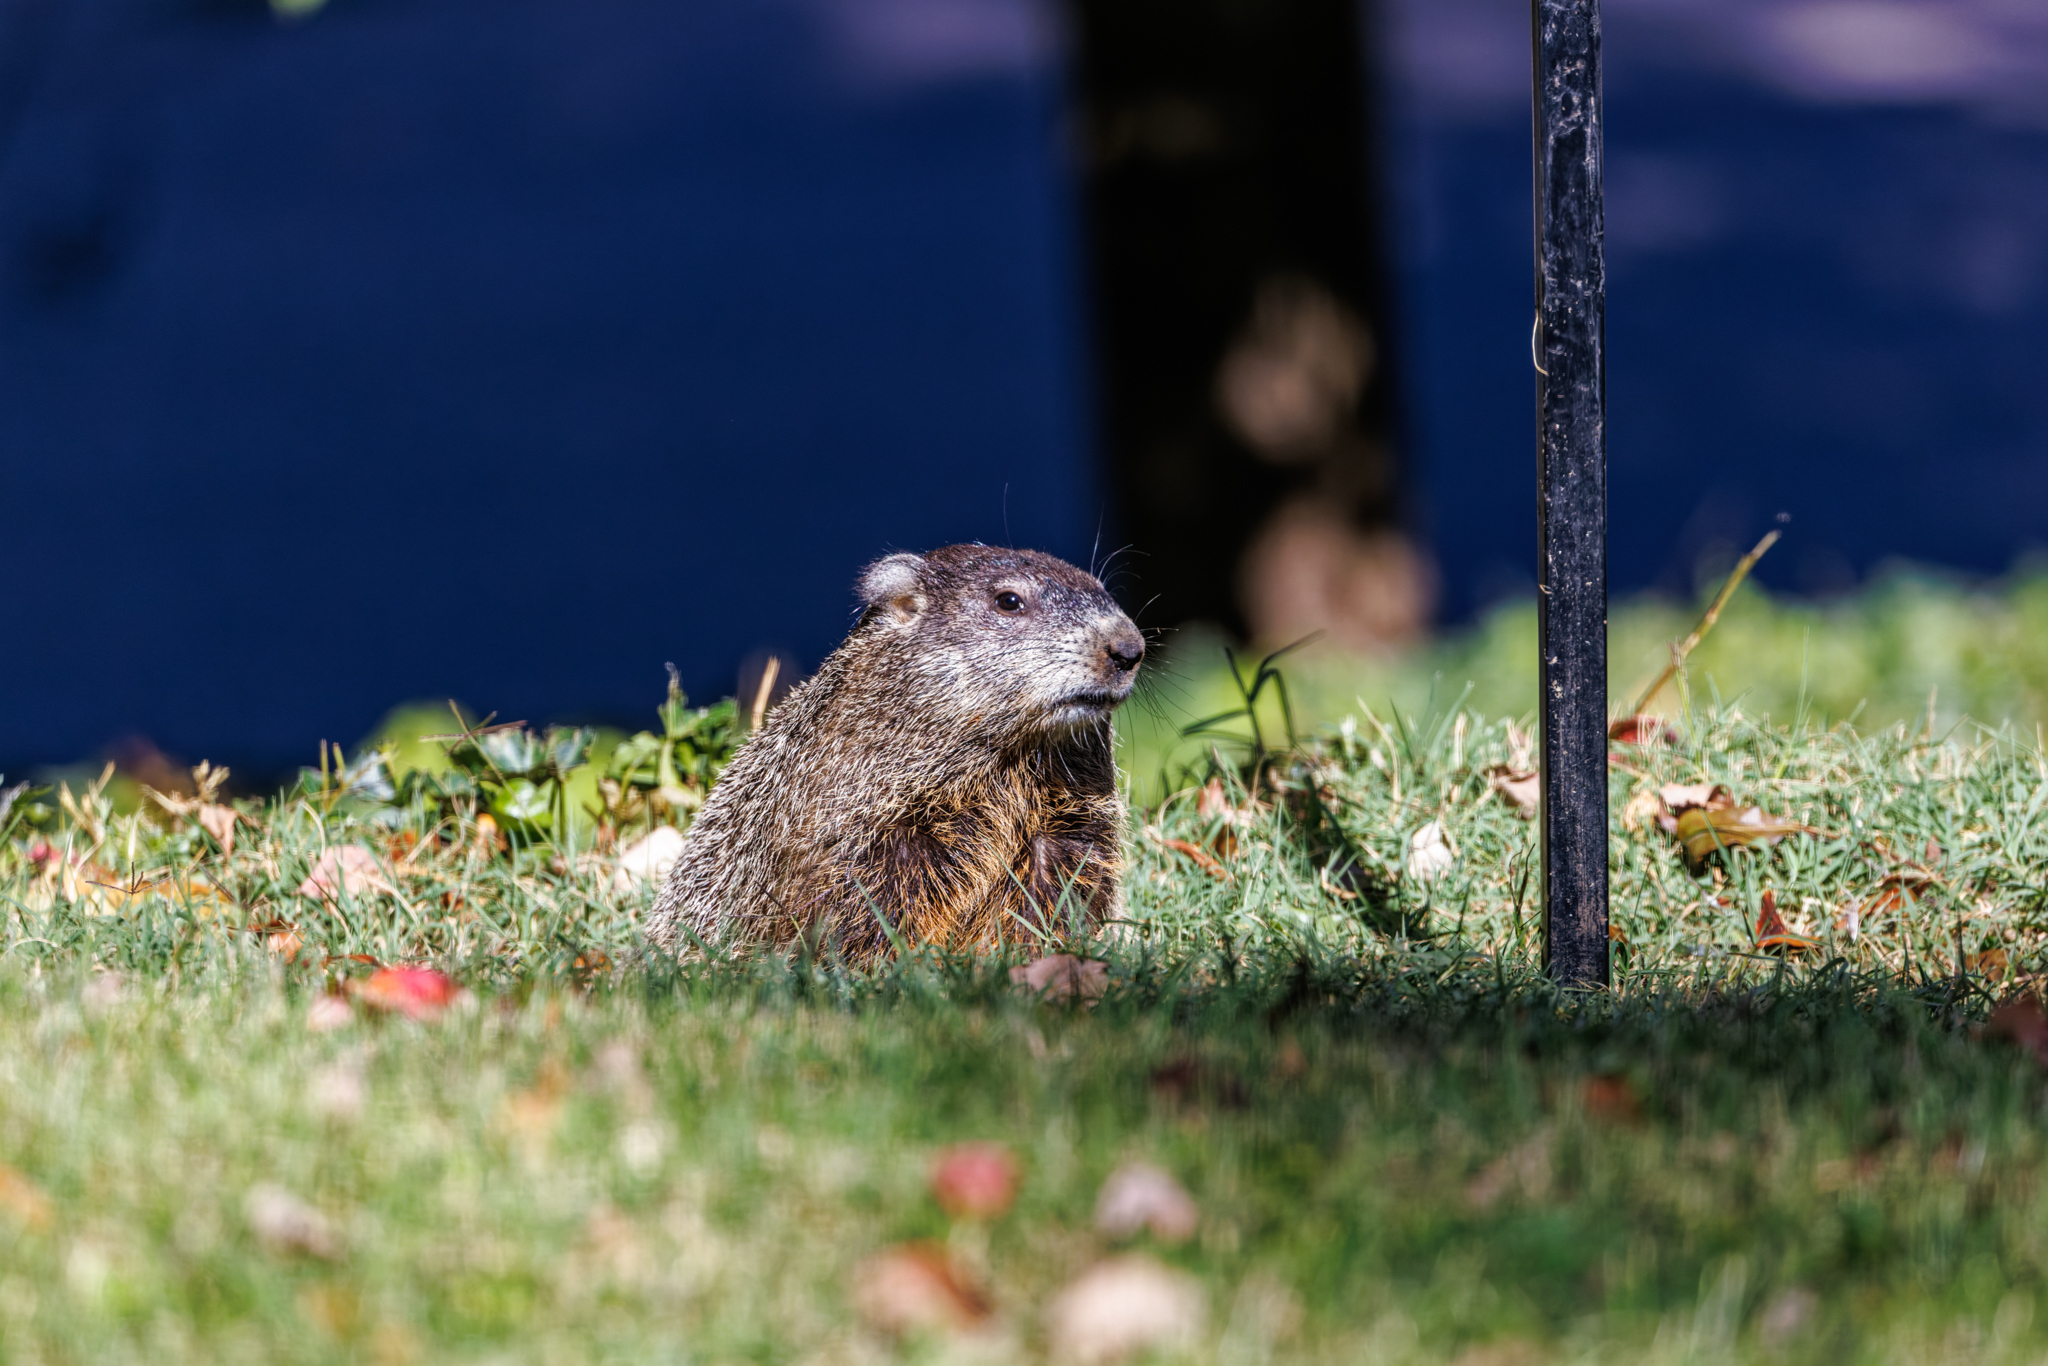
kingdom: Animalia
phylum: Chordata
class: Mammalia
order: Rodentia
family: Sciuridae
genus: Marmota
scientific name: Marmota monax
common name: Groundhog
